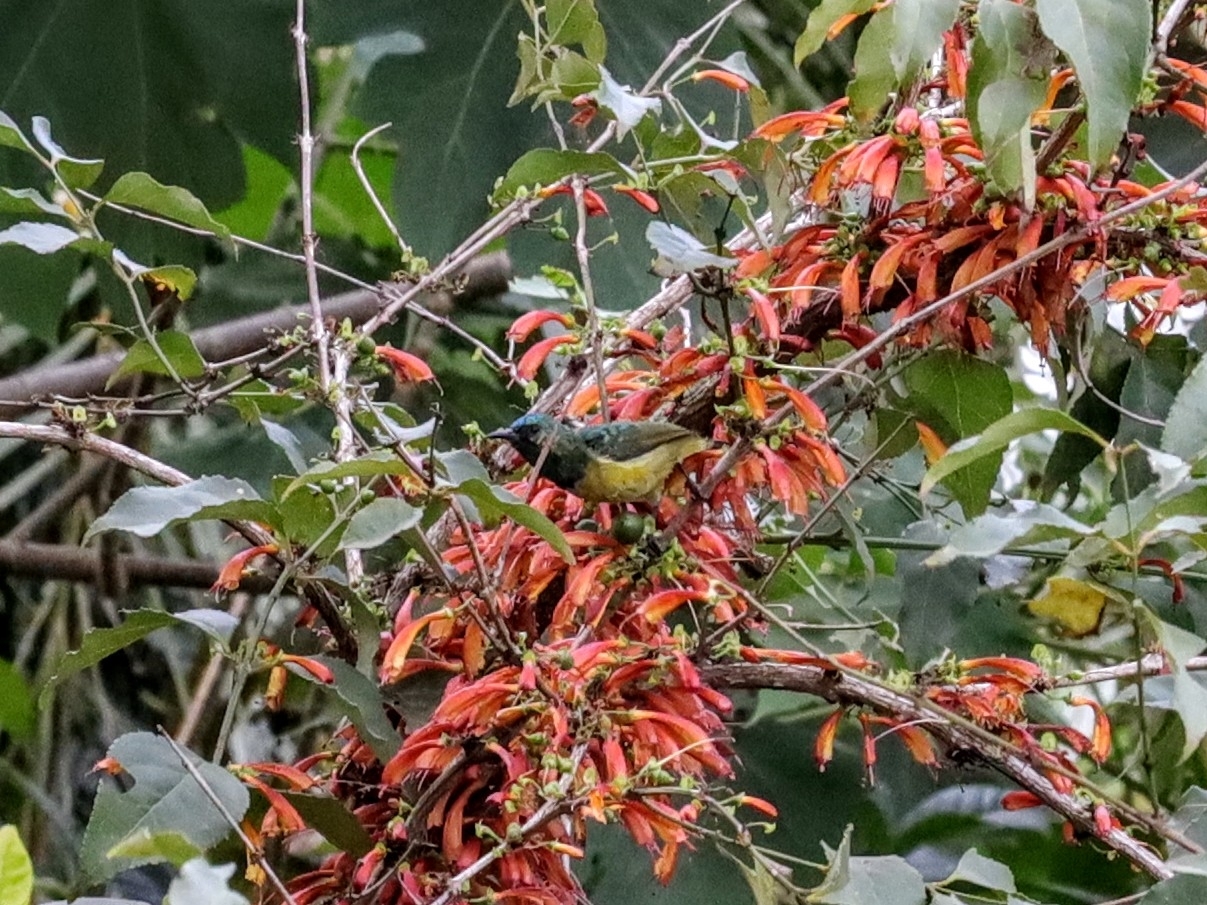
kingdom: Animalia
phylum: Chordata
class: Aves
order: Passeriformes
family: Nectariniidae
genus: Hedydipna
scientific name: Hedydipna collaris
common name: Collared sunbird
